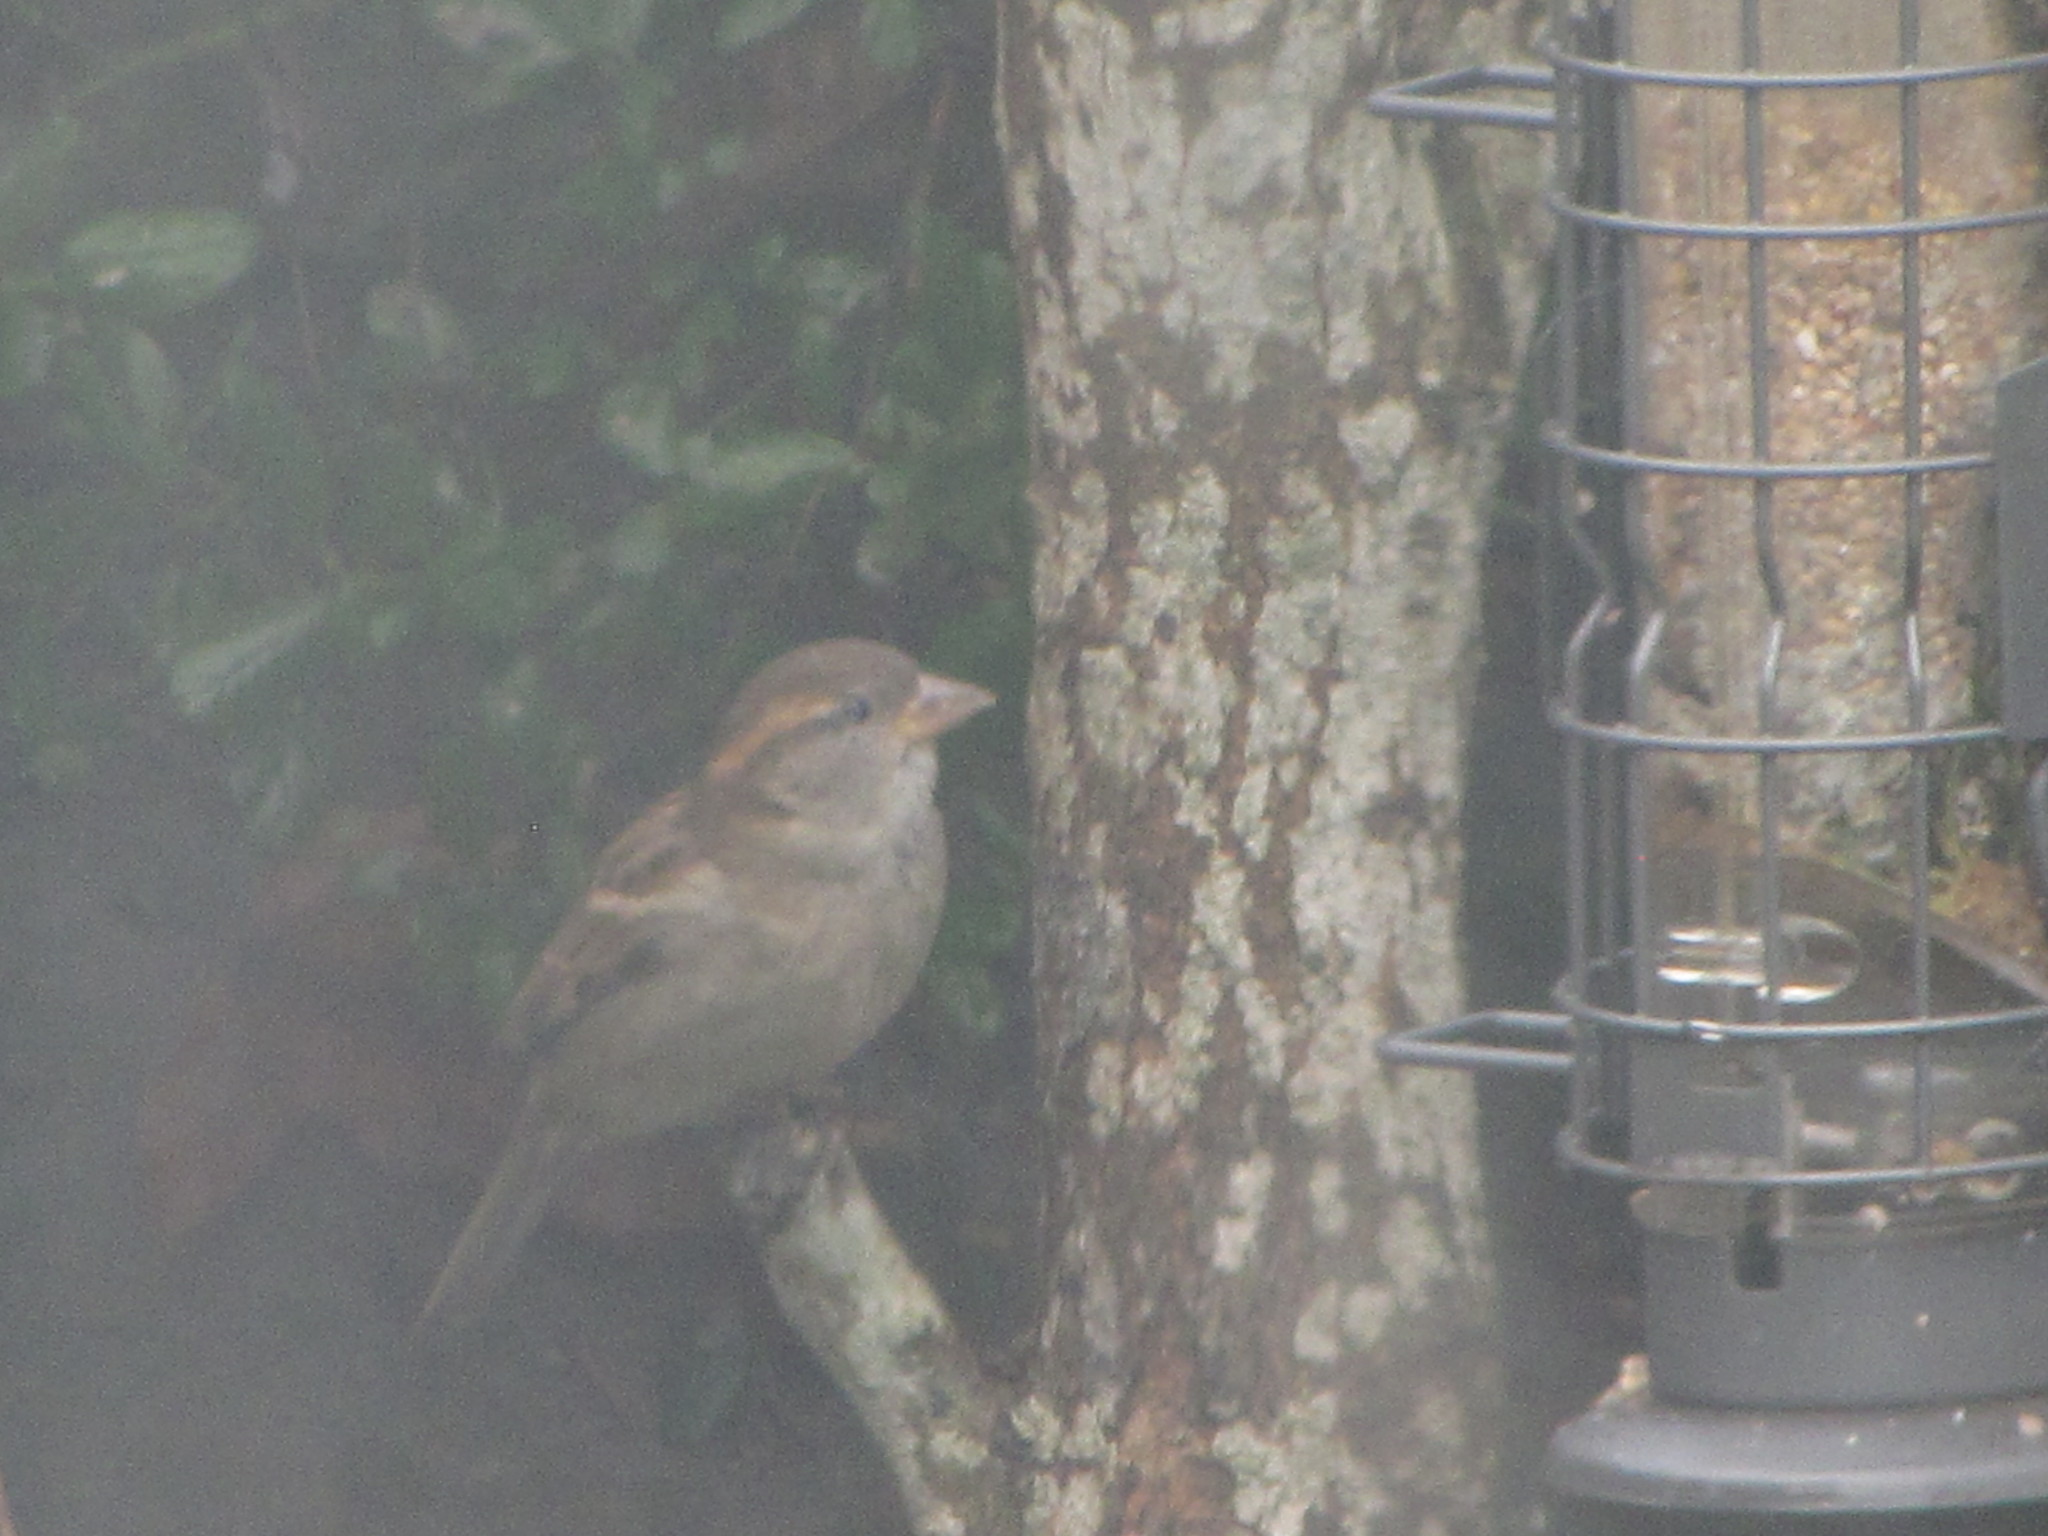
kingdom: Animalia
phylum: Chordata
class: Aves
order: Passeriformes
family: Passeridae
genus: Passer
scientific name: Passer domesticus
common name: House sparrow
